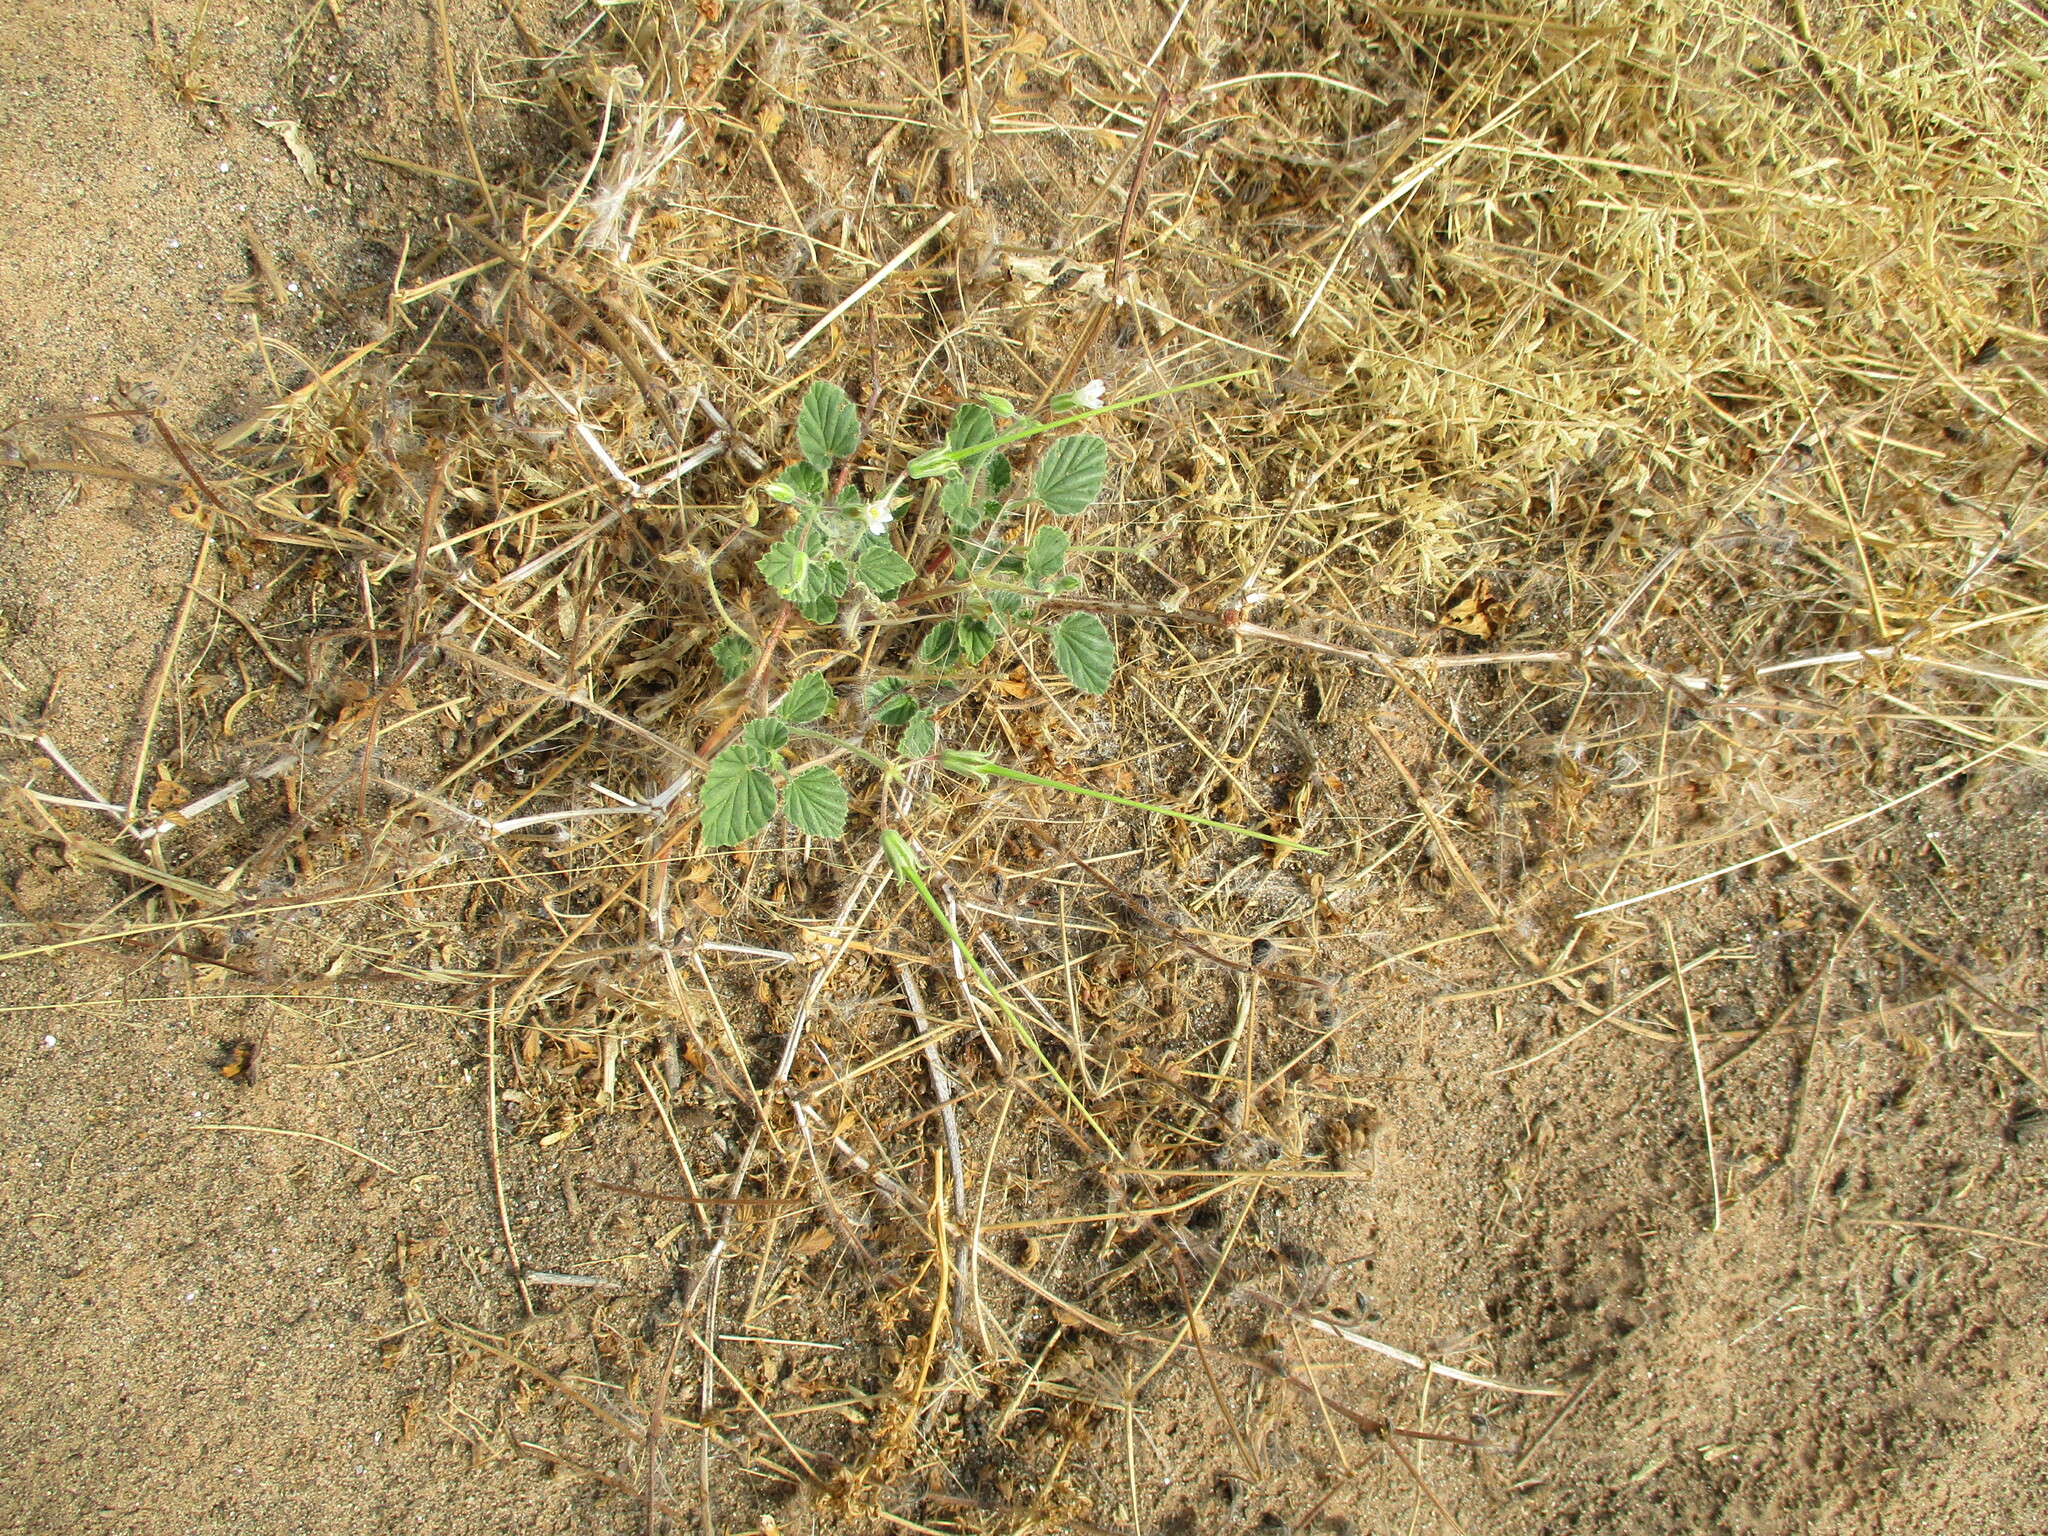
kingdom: Plantae
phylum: Tracheophyta
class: Magnoliopsida
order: Geraniales
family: Geraniaceae
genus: Monsonia
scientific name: Monsonia umbellata
